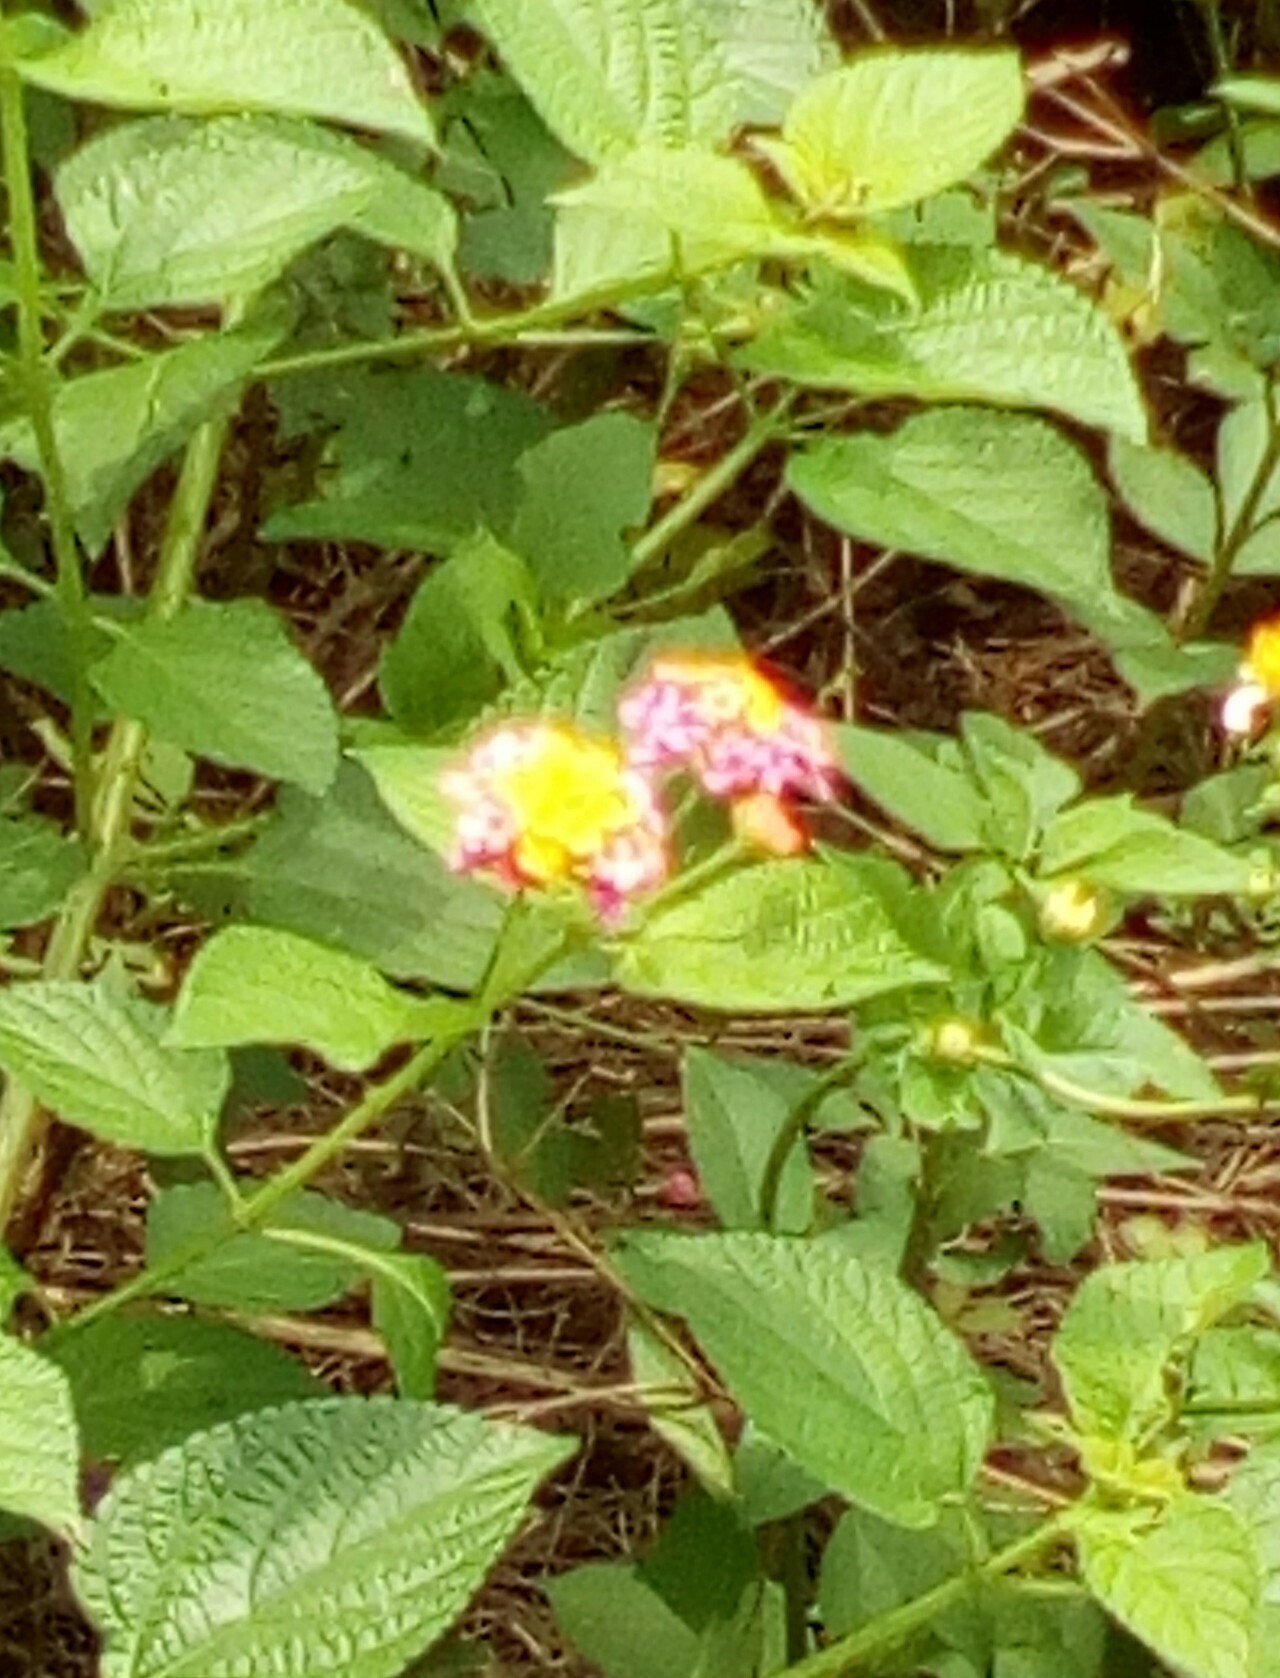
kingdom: Plantae
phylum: Tracheophyta
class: Magnoliopsida
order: Lamiales
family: Verbenaceae
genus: Lantana
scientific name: Lantana camara
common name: Lantana
